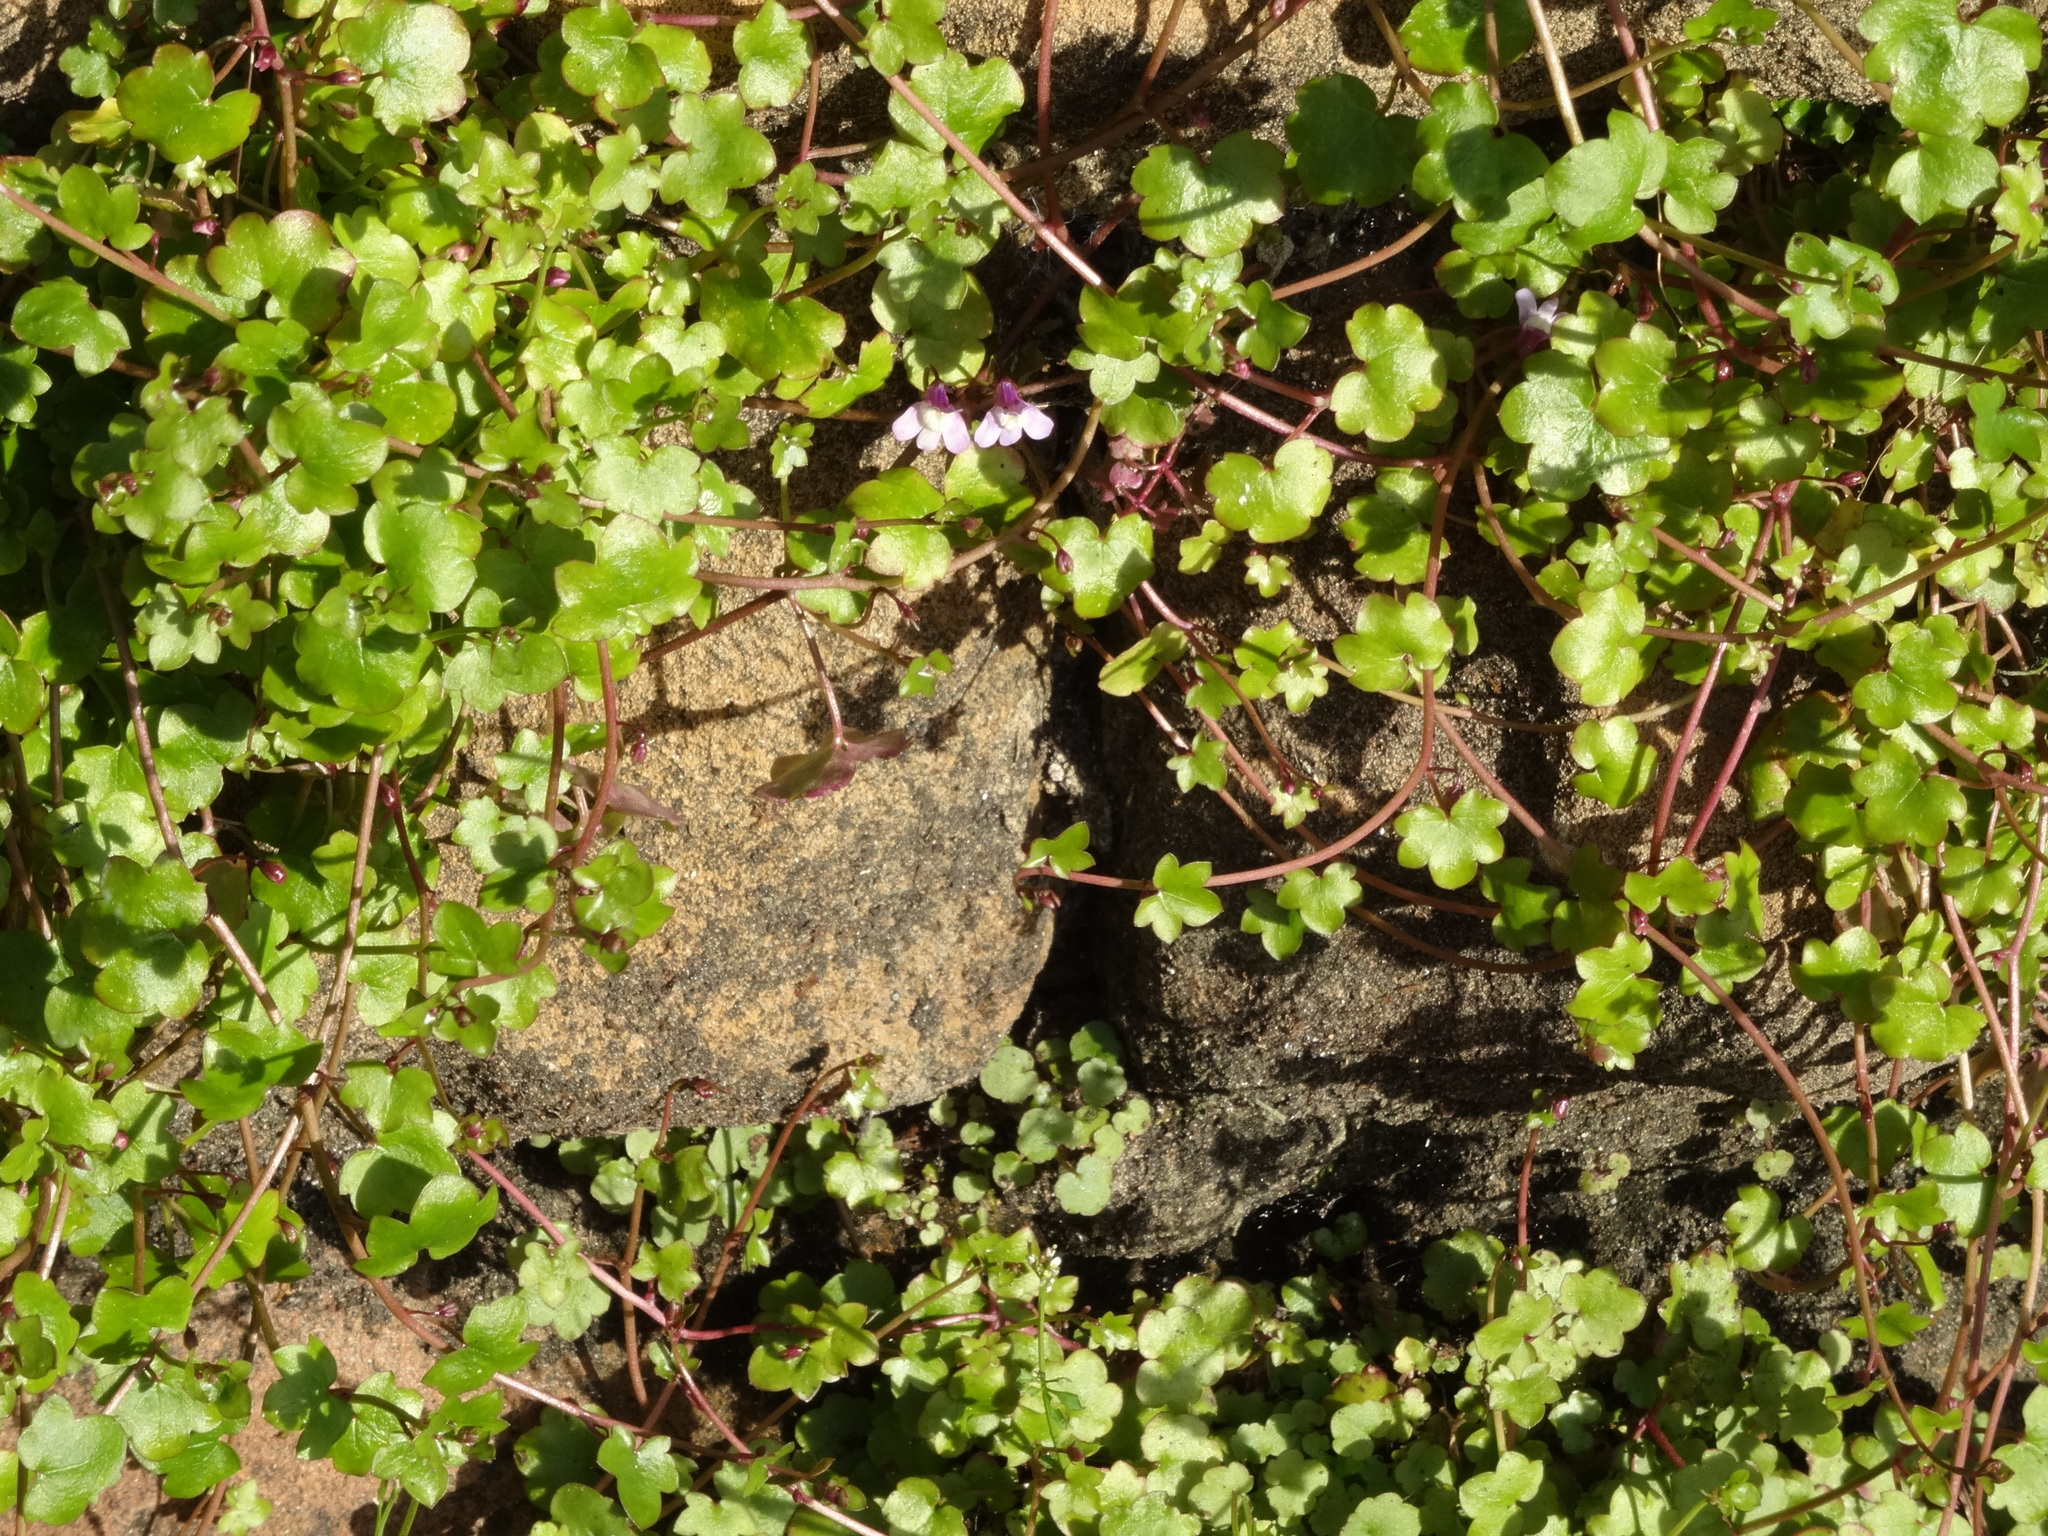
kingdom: Plantae
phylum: Tracheophyta
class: Magnoliopsida
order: Lamiales
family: Plantaginaceae
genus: Cymbalaria
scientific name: Cymbalaria muralis
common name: Ivy-leaved toadflax
